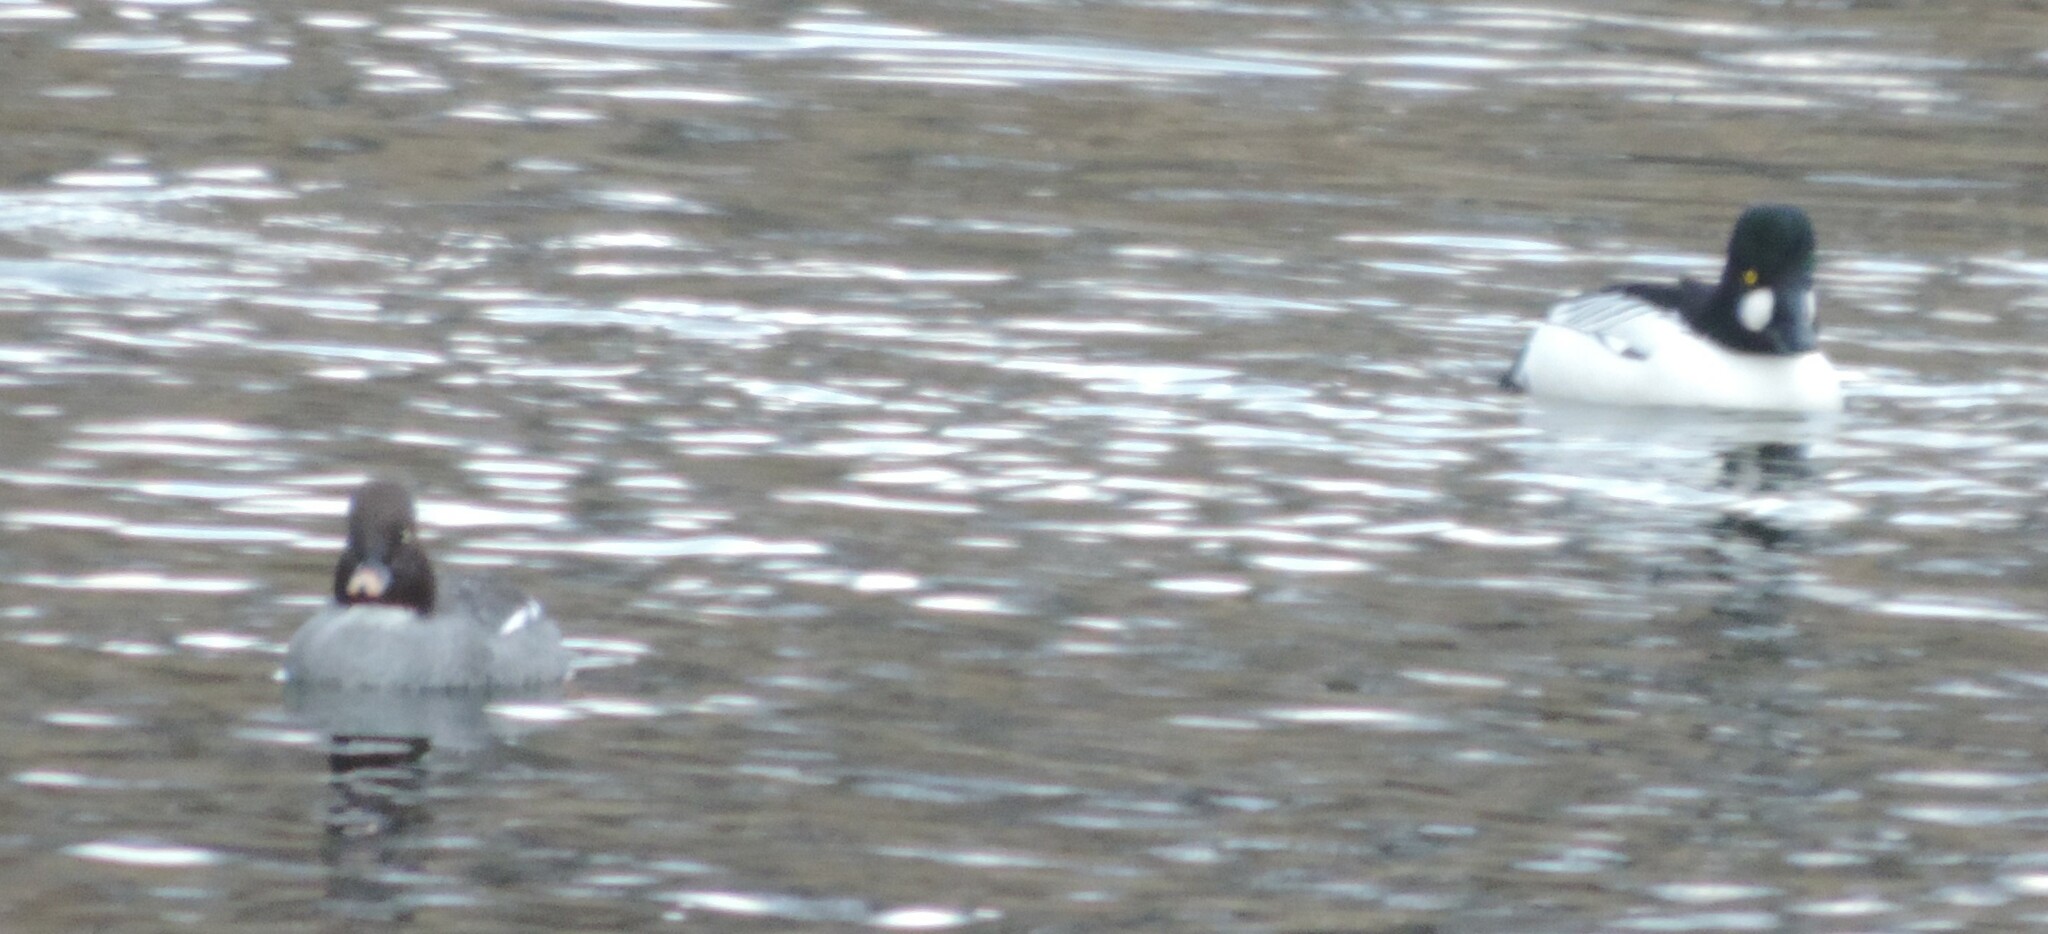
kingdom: Animalia
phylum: Chordata
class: Aves
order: Anseriformes
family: Anatidae
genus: Bucephala
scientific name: Bucephala clangula
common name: Common goldeneye
